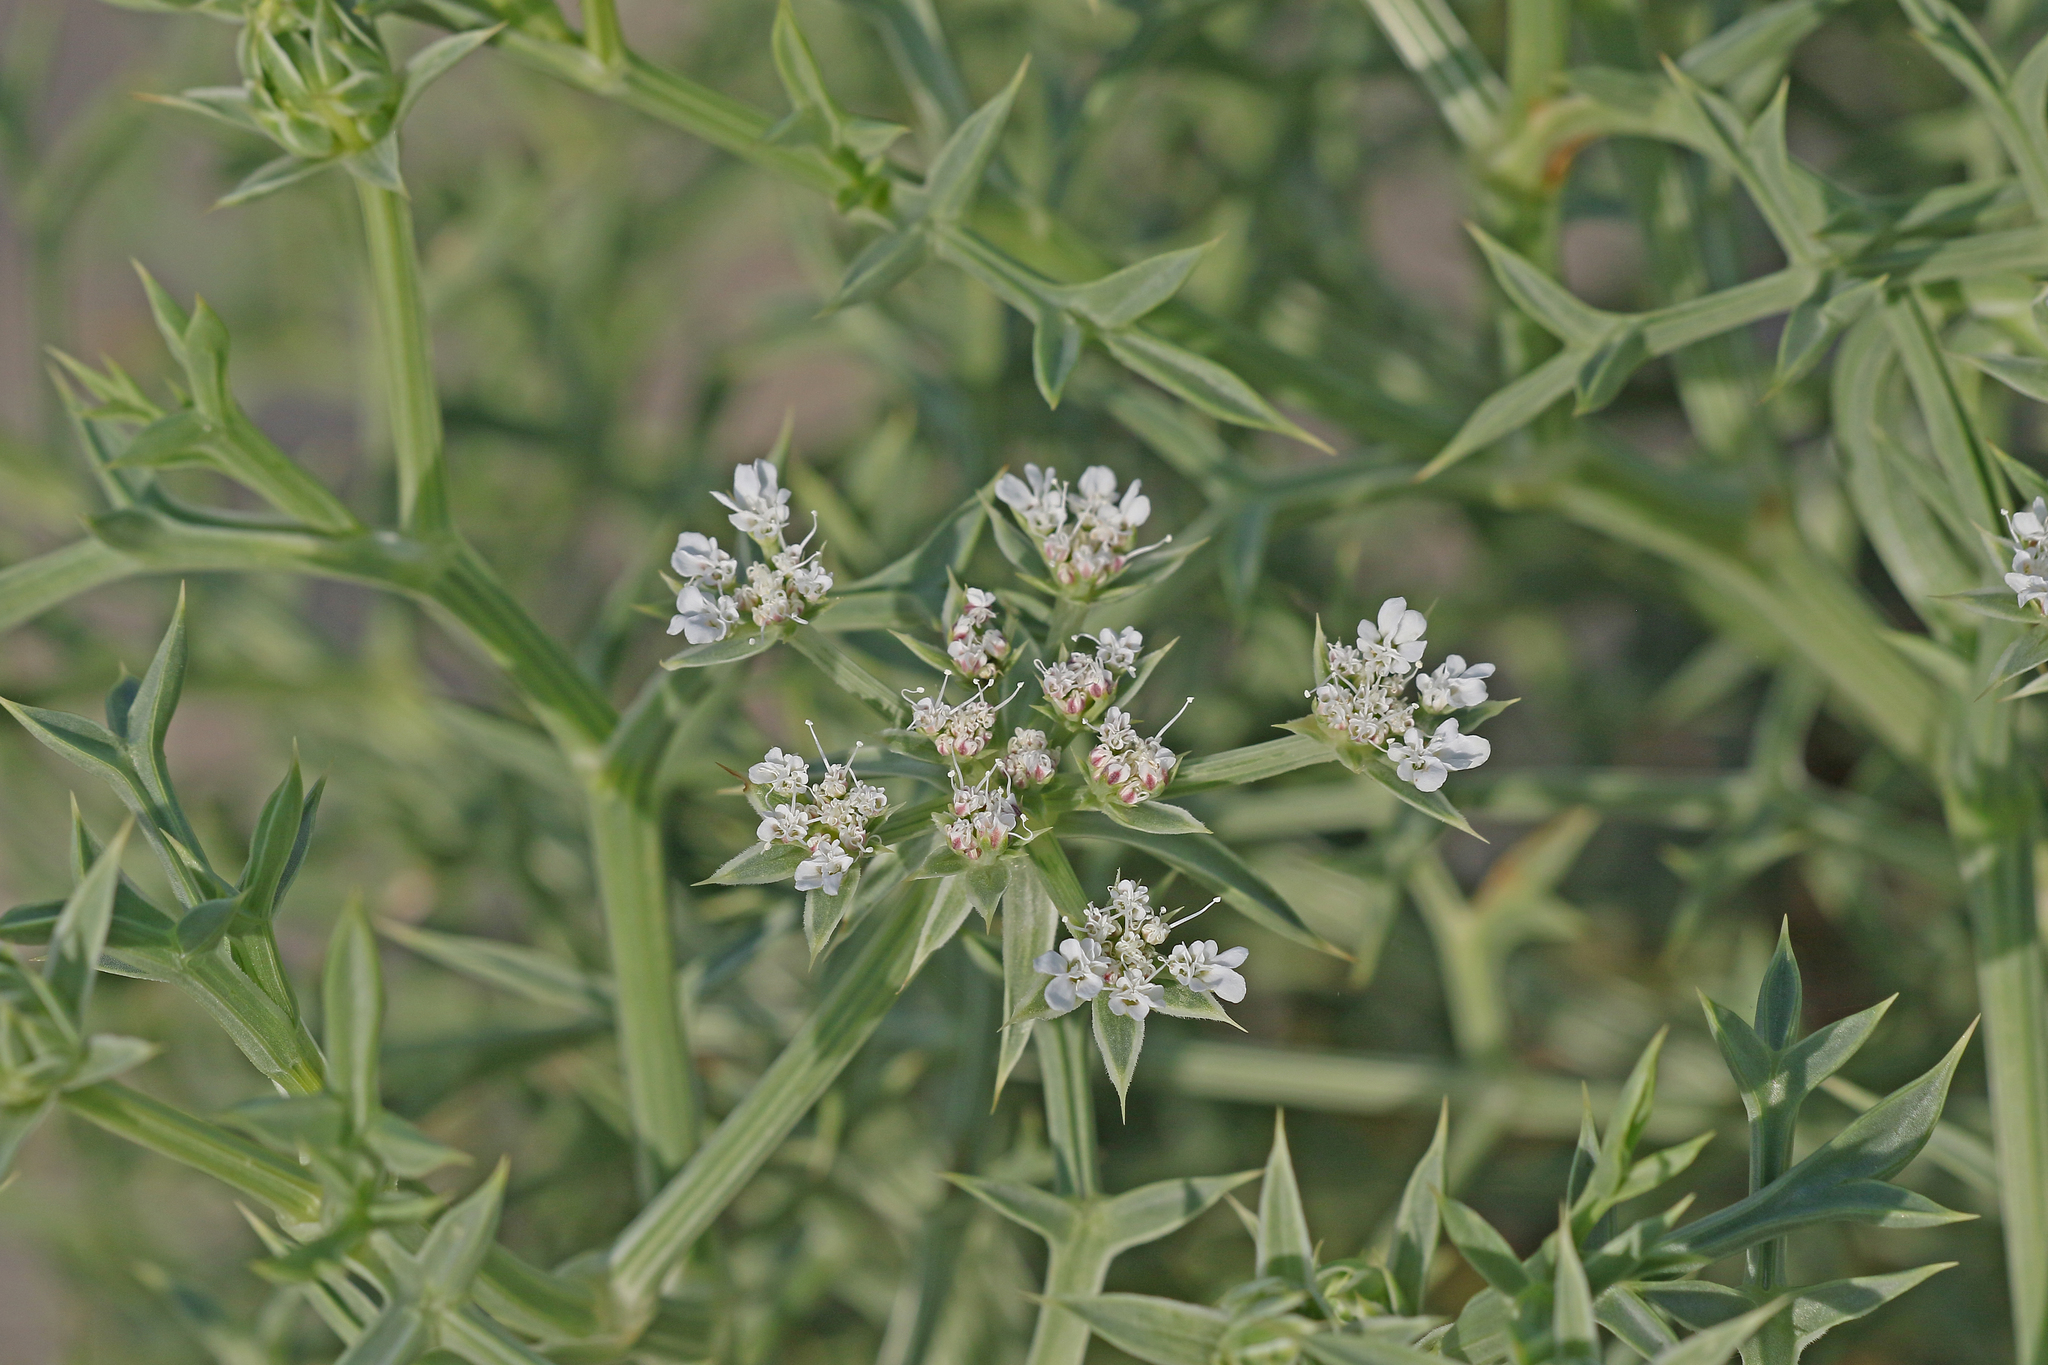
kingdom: Plantae
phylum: Tracheophyta
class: Magnoliopsida
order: Apiales
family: Apiaceae
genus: Echinophora
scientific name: Echinophora spinosa
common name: Prickly samphire
